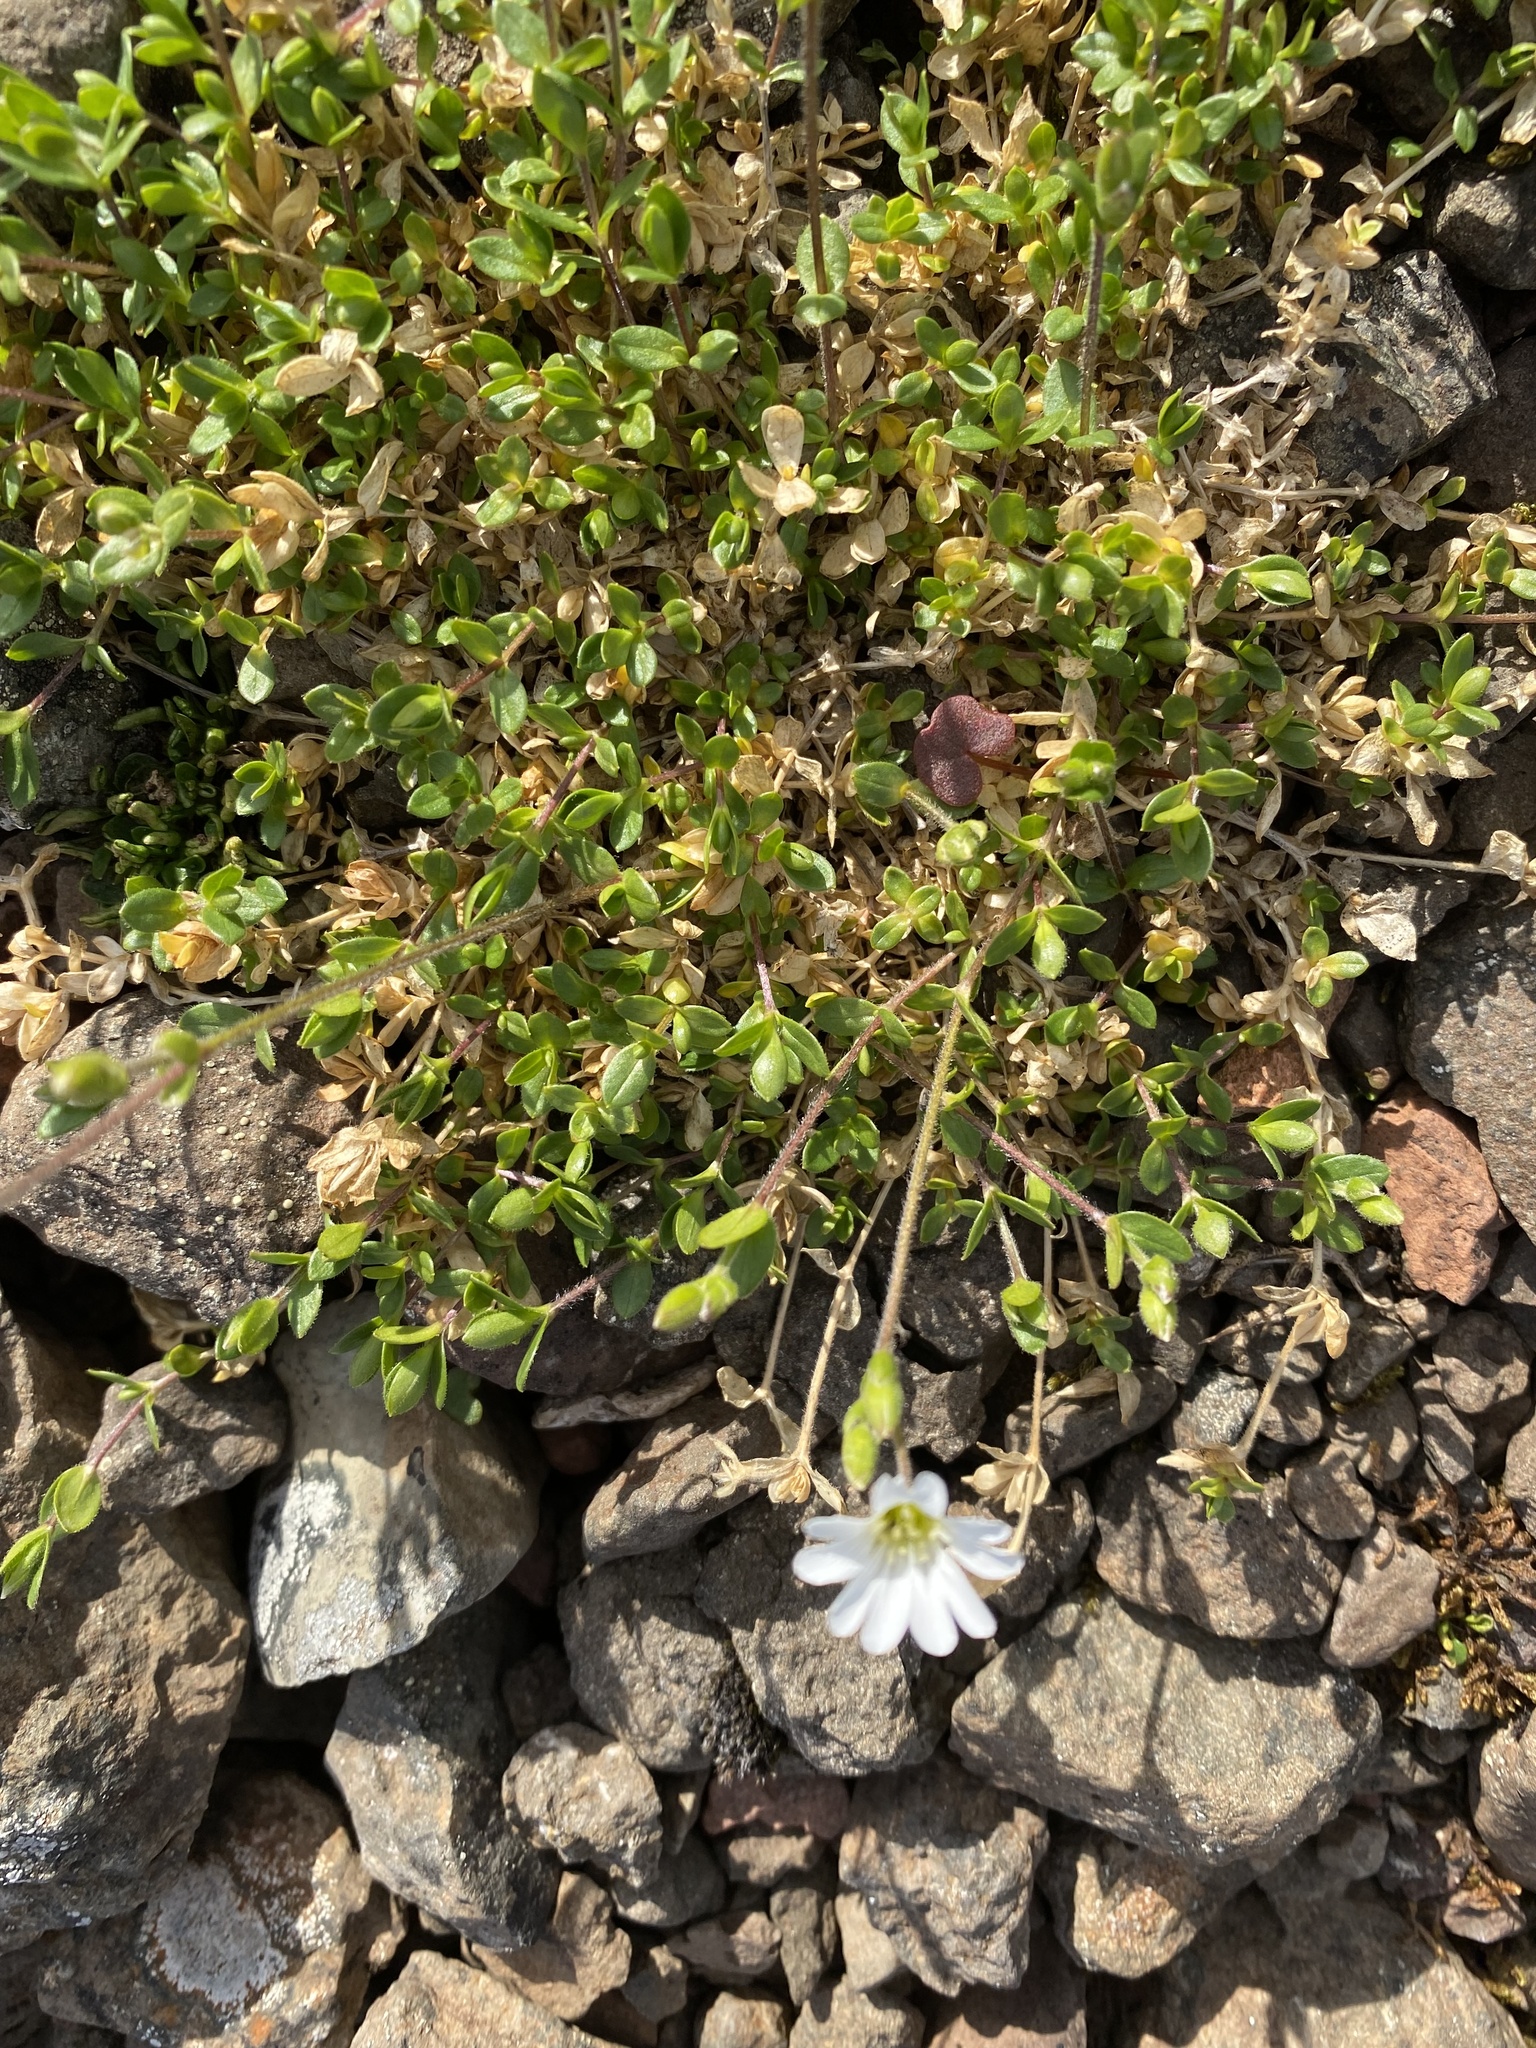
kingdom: Plantae
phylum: Tracheophyta
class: Magnoliopsida
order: Caryophyllales
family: Caryophyllaceae
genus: Cerastium
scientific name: Cerastium regelii
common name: Regel's chickweed
